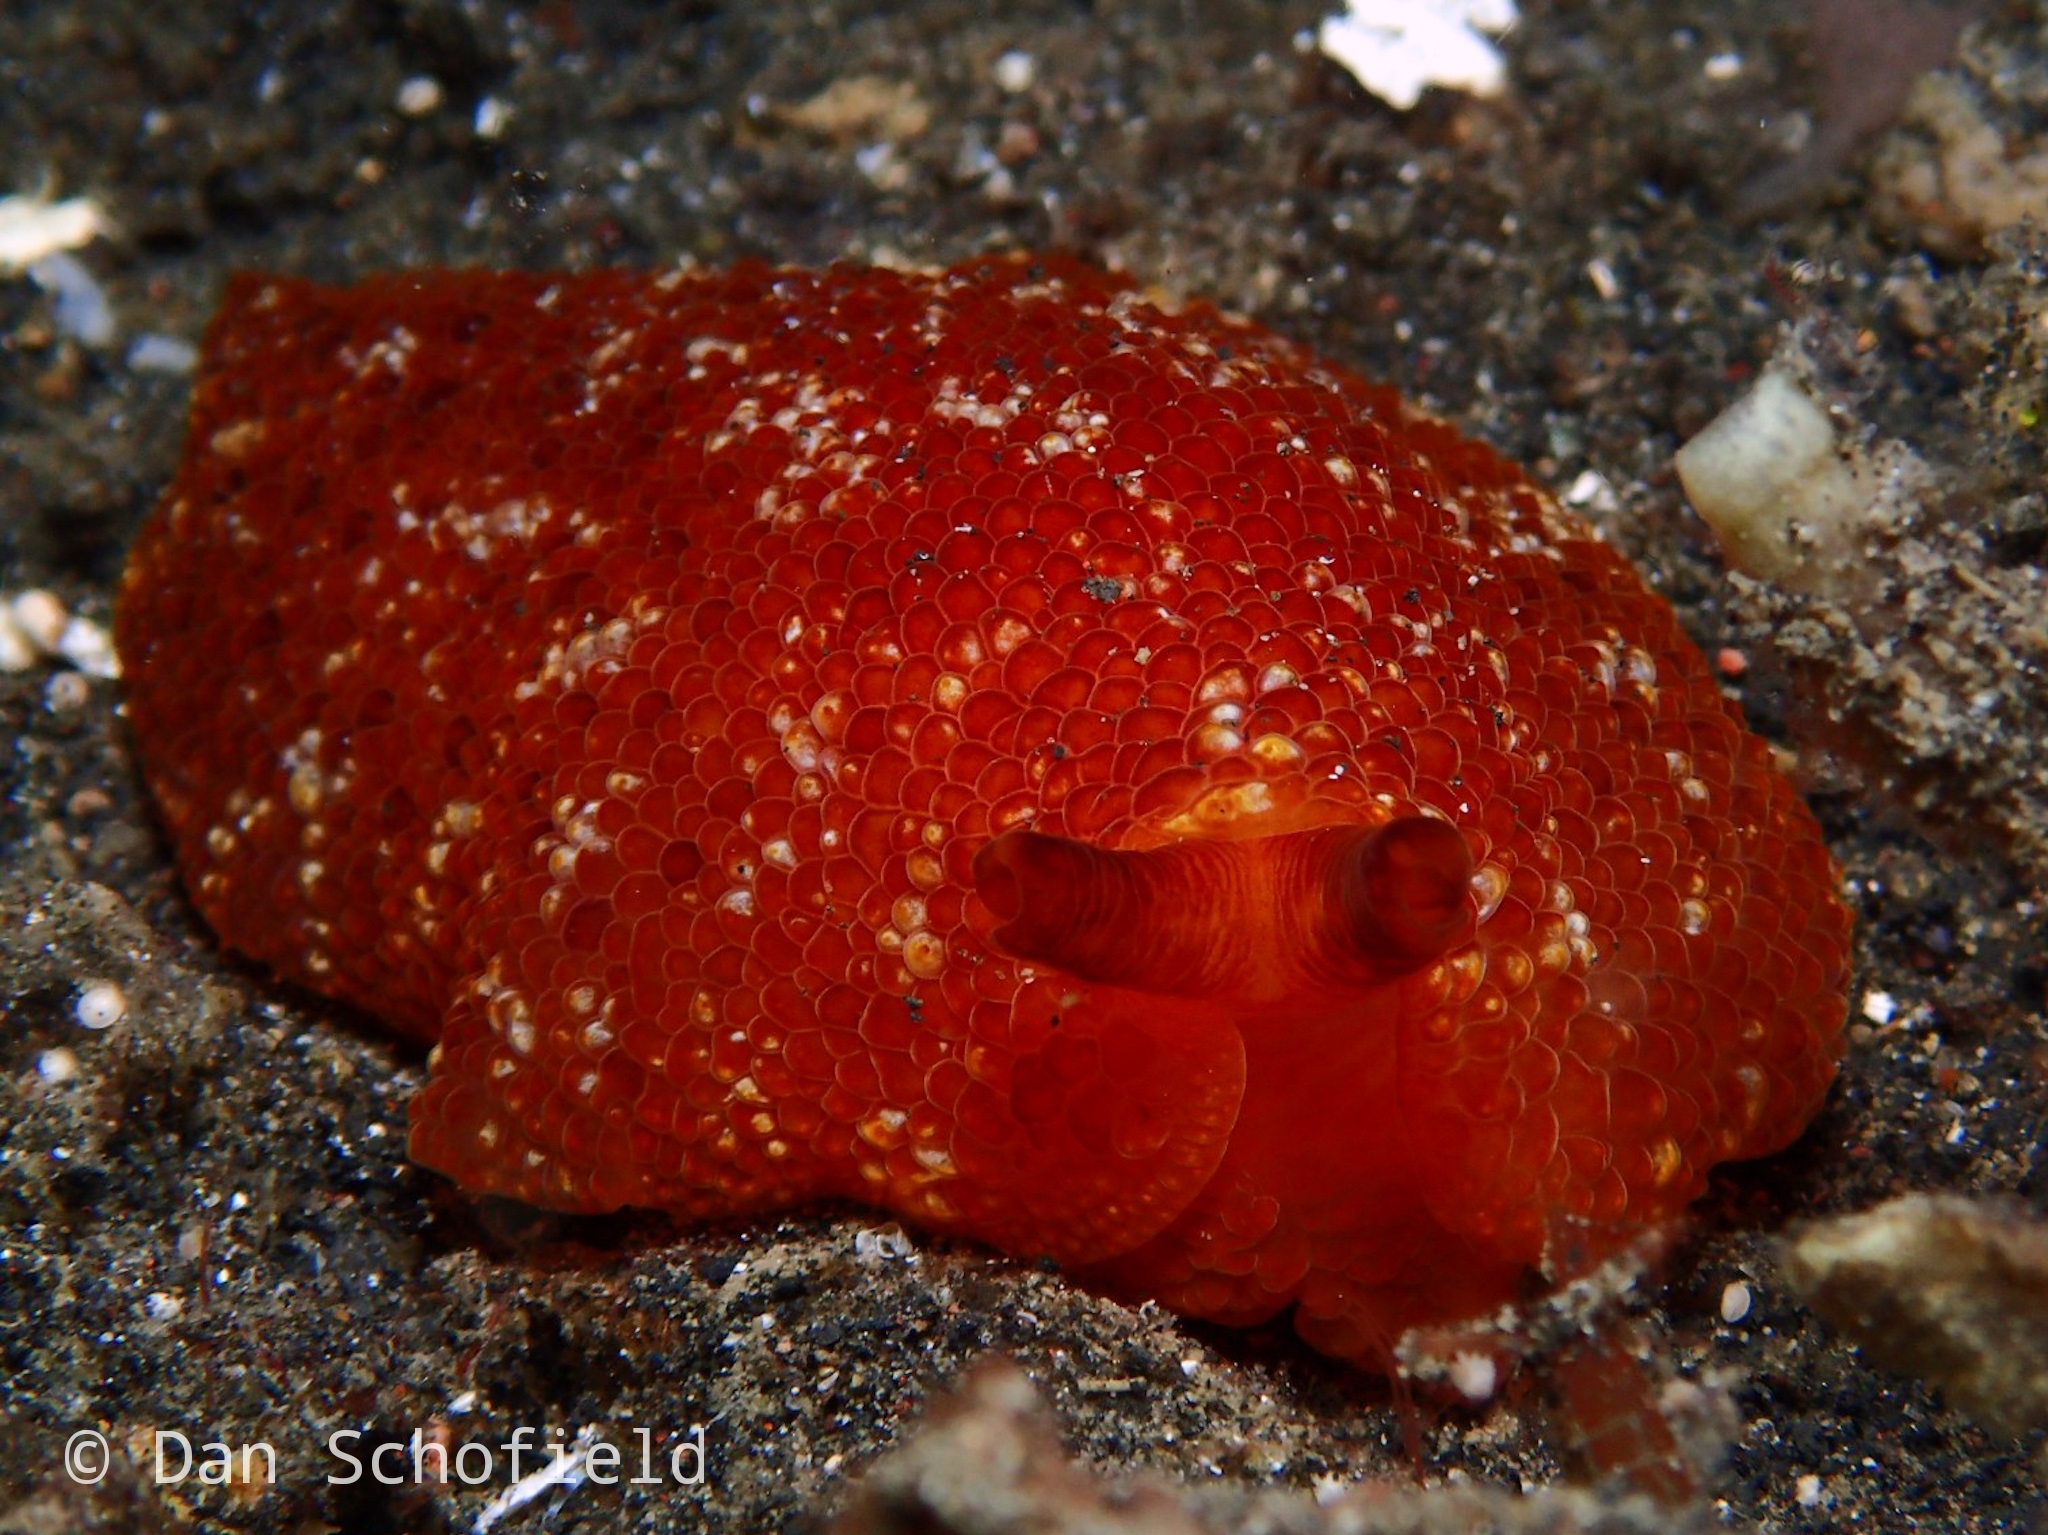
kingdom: Animalia
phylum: Mollusca
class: Gastropoda
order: Pleurobranchida
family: Pleurobranchidae
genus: Pleurobranchus
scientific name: Pleurobranchus peronii
